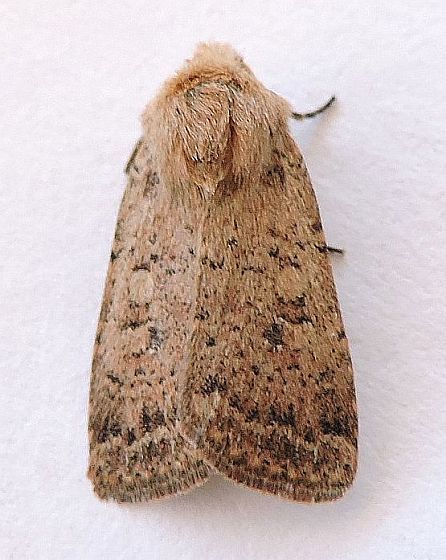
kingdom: Animalia
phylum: Arthropoda
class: Insecta
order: Lepidoptera
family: Noctuidae
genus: Homorthodes
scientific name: Homorthodes fractura
